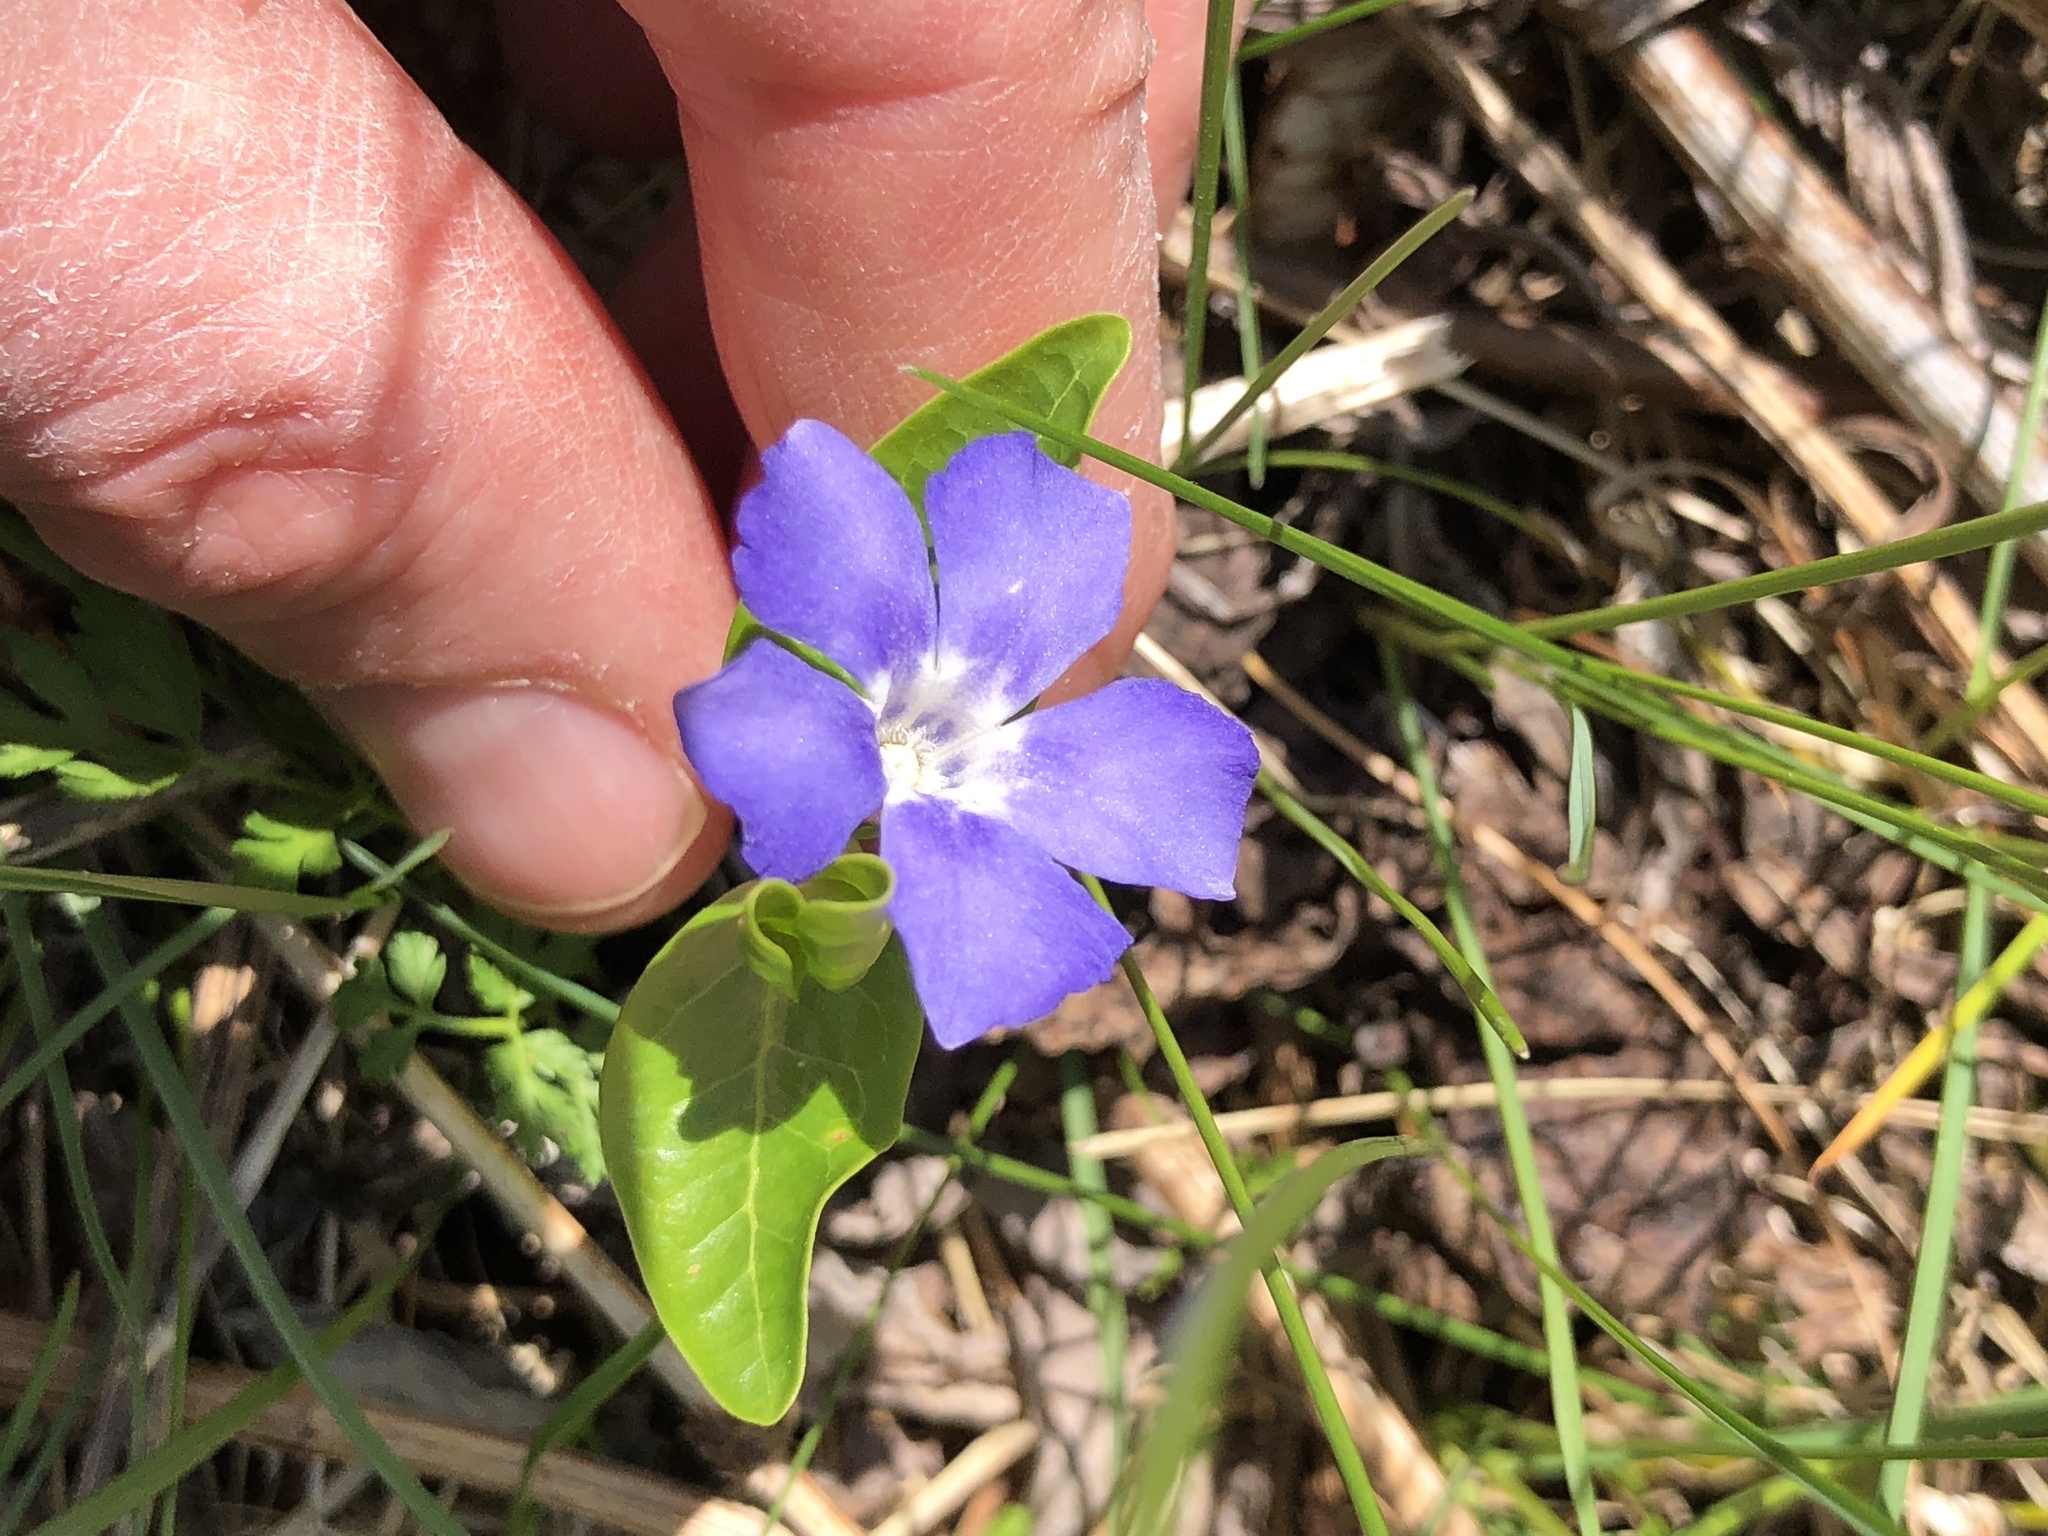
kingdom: Plantae
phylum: Tracheophyta
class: Magnoliopsida
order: Gentianales
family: Apocynaceae
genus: Vinca
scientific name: Vinca minor
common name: Lesser periwinkle
